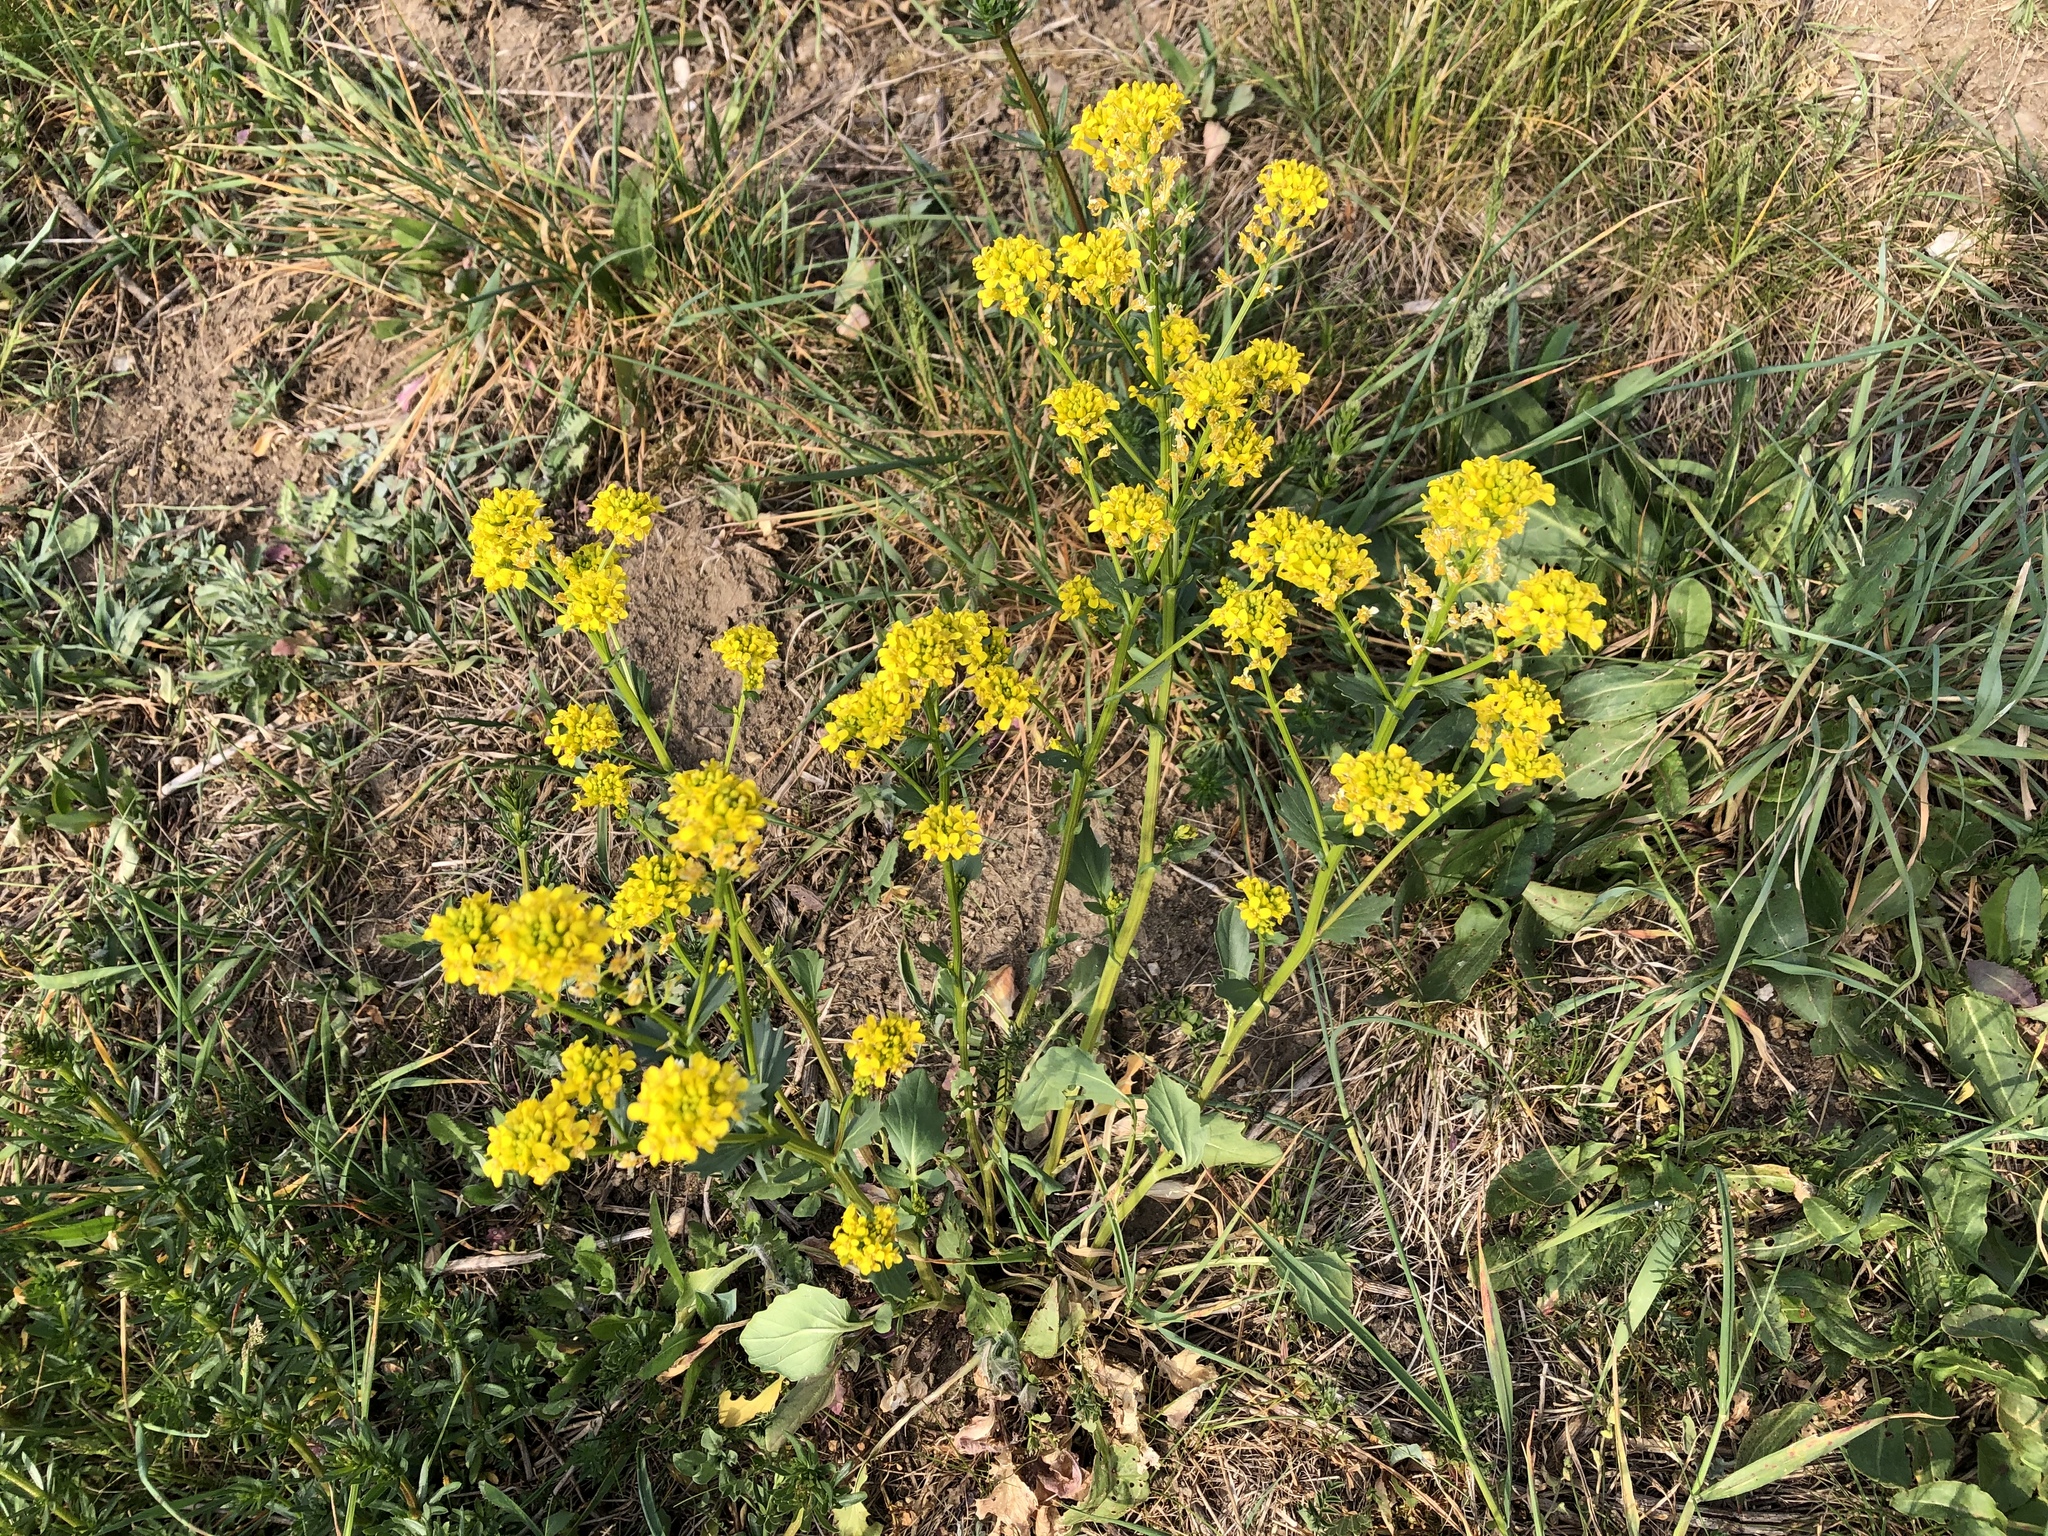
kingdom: Plantae
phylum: Tracheophyta
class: Magnoliopsida
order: Brassicales
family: Brassicaceae
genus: Barbarea
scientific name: Barbarea vulgaris
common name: Cressy-greens
